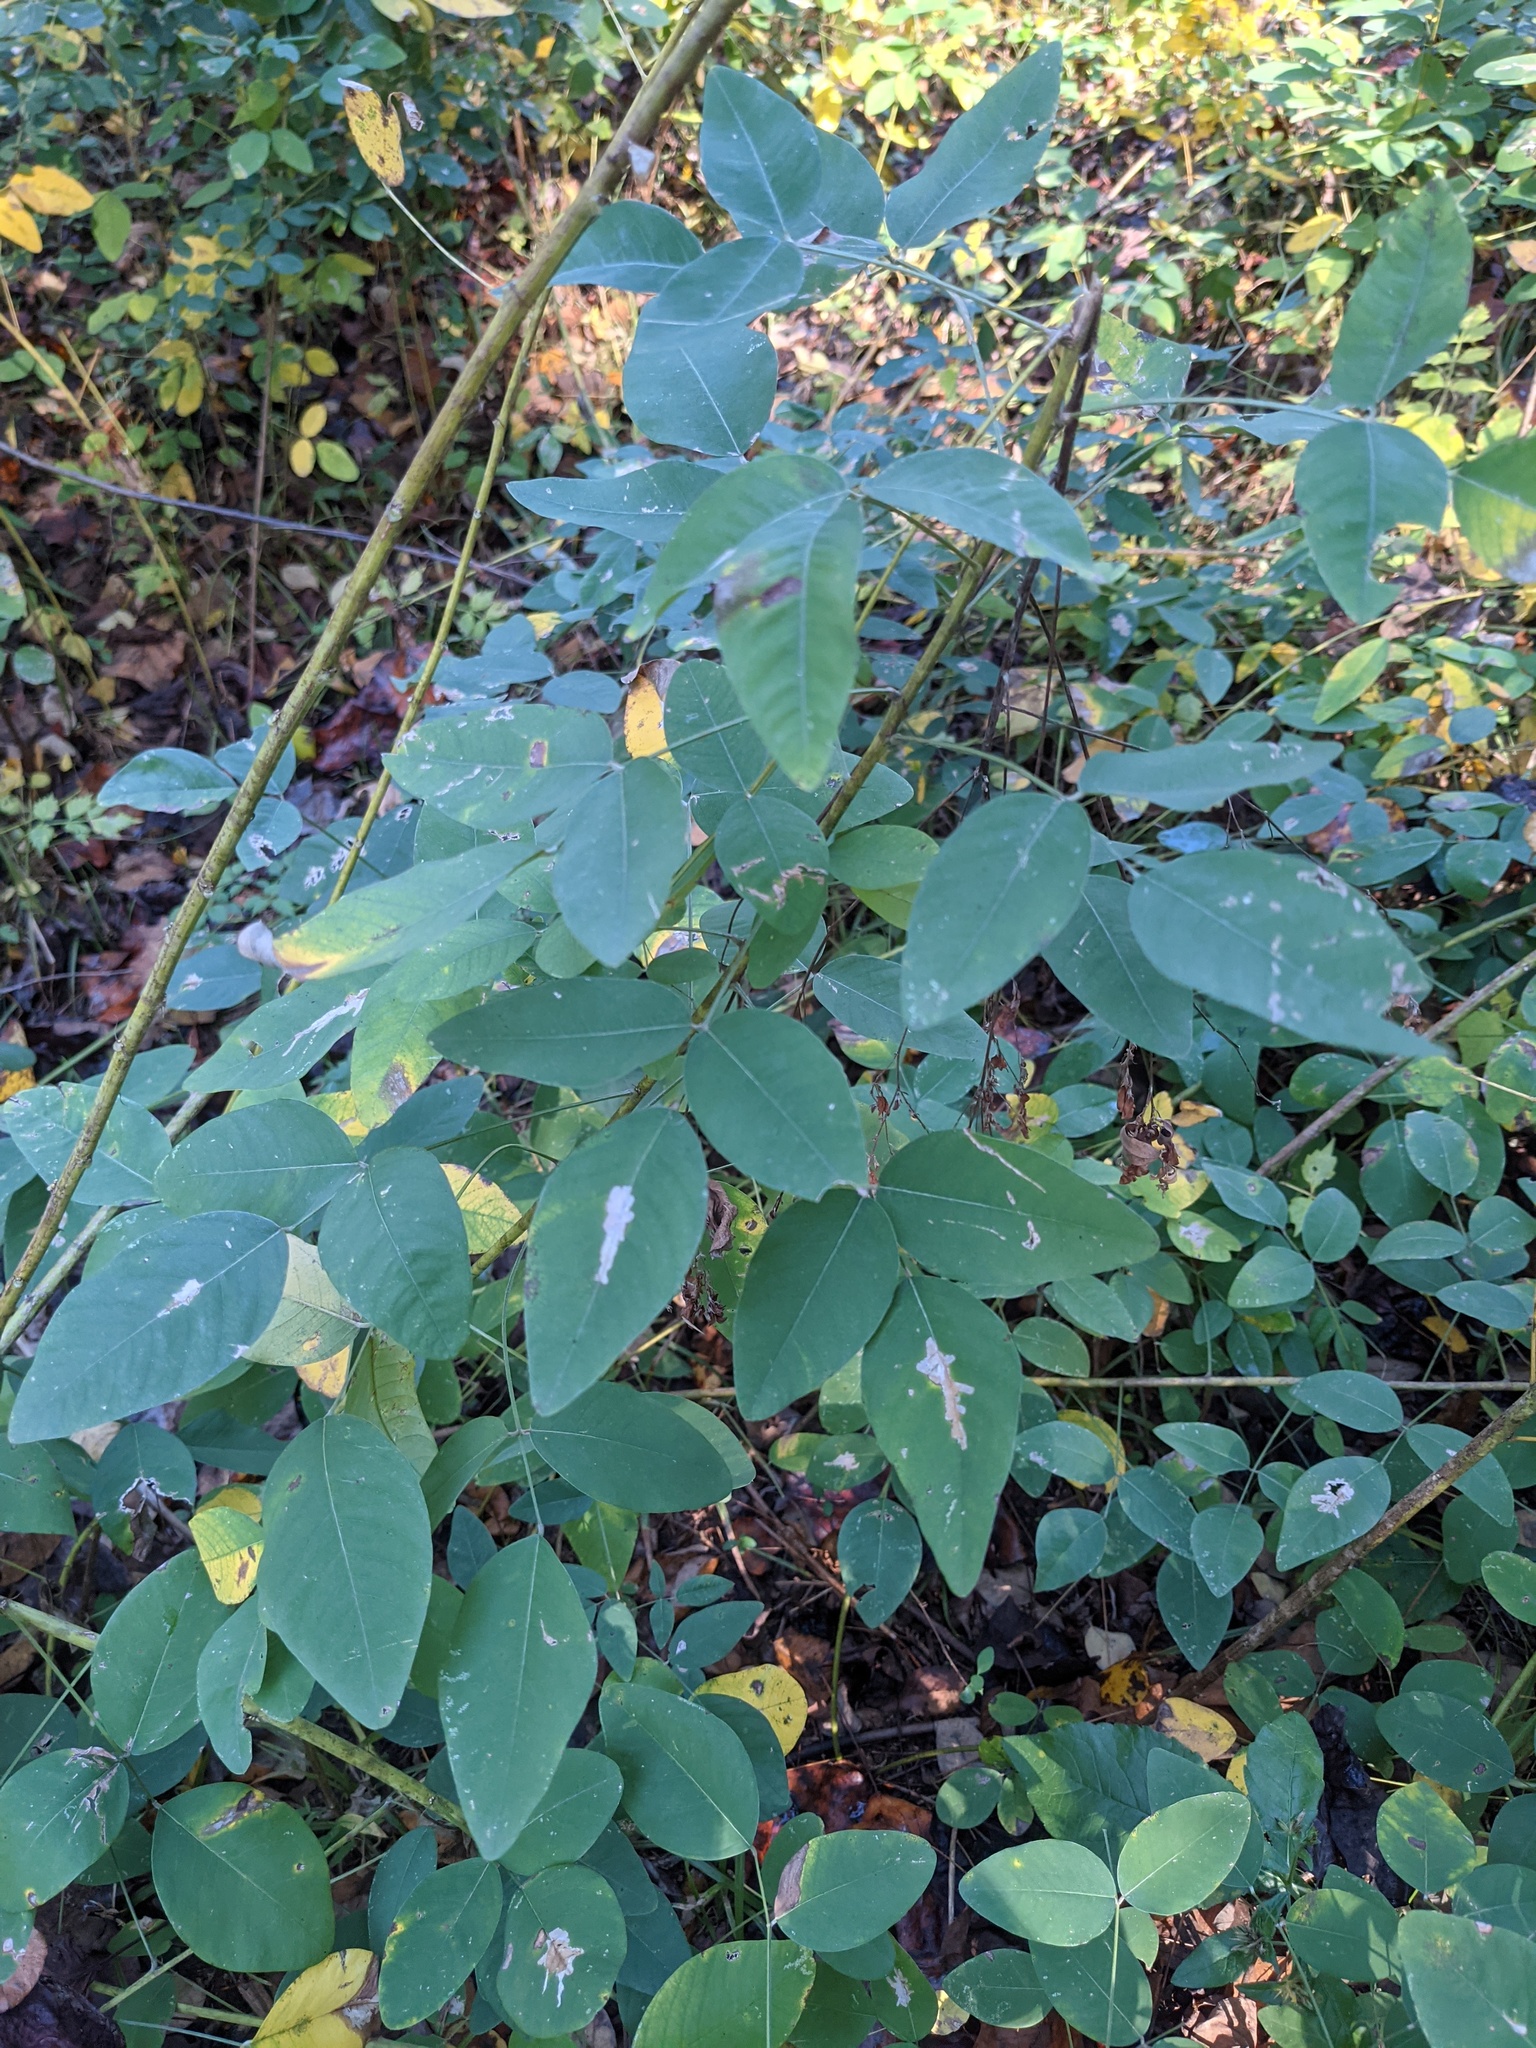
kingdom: Plantae
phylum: Tracheophyta
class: Magnoliopsida
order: Fabales
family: Fabaceae
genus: Lespedeza
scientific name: Lespedeza bicolor
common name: Shrub lespedeza
